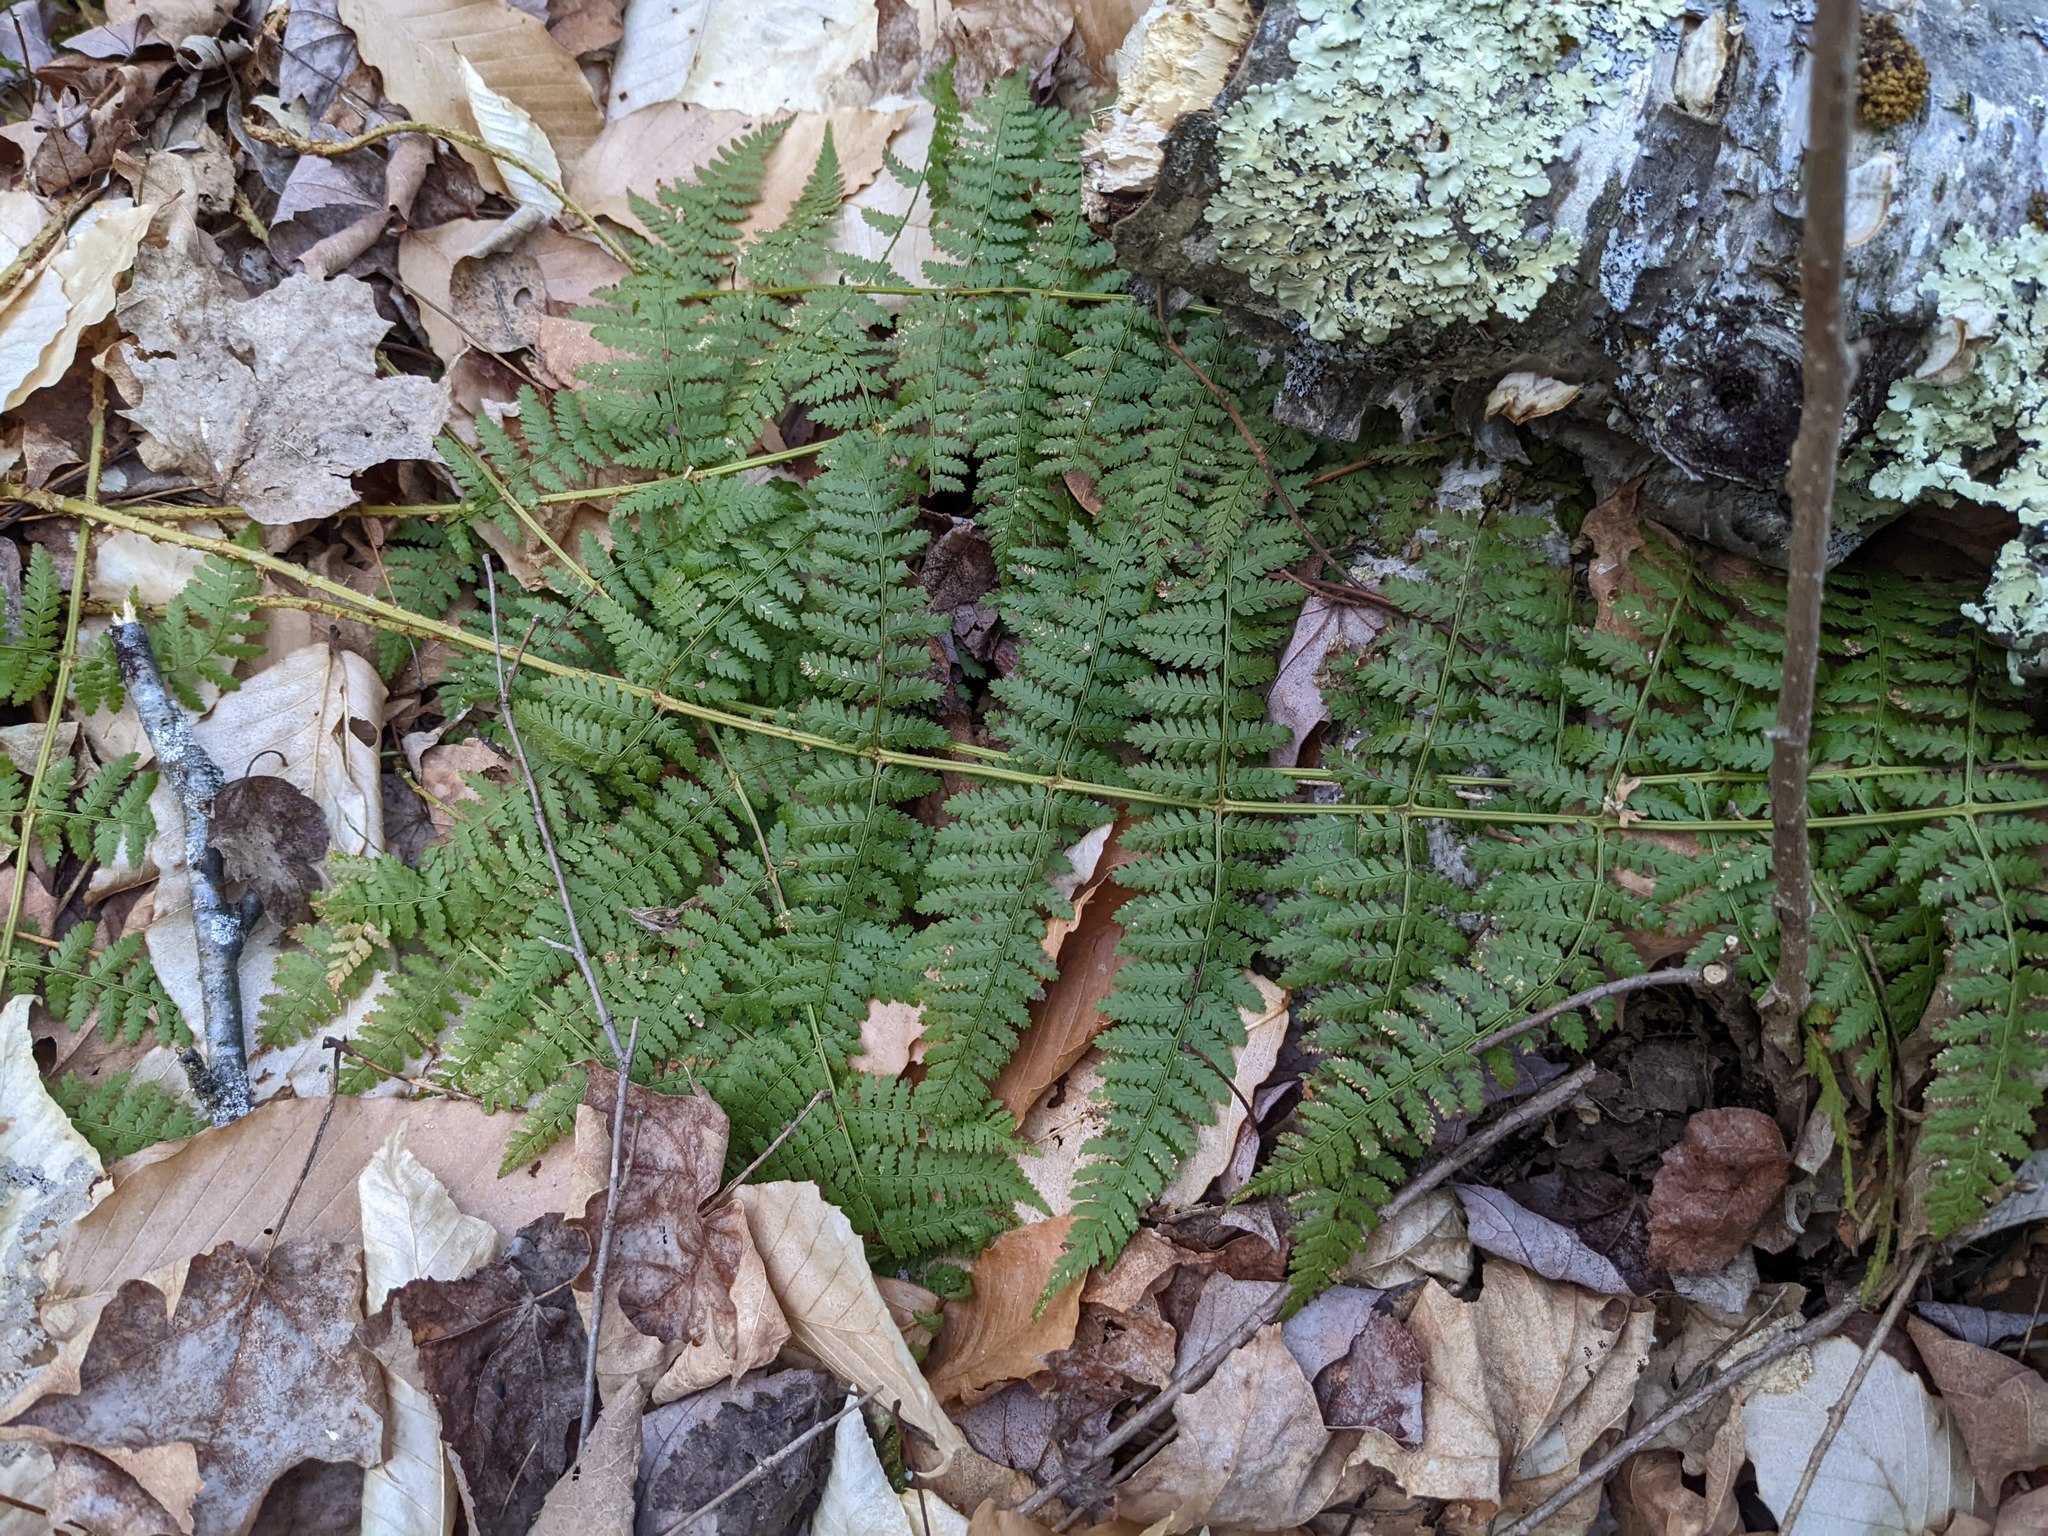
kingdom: Plantae
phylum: Tracheophyta
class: Polypodiopsida
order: Polypodiales
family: Dryopteridaceae
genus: Dryopteris
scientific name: Dryopteris intermedia
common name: Evergreen wood fern
